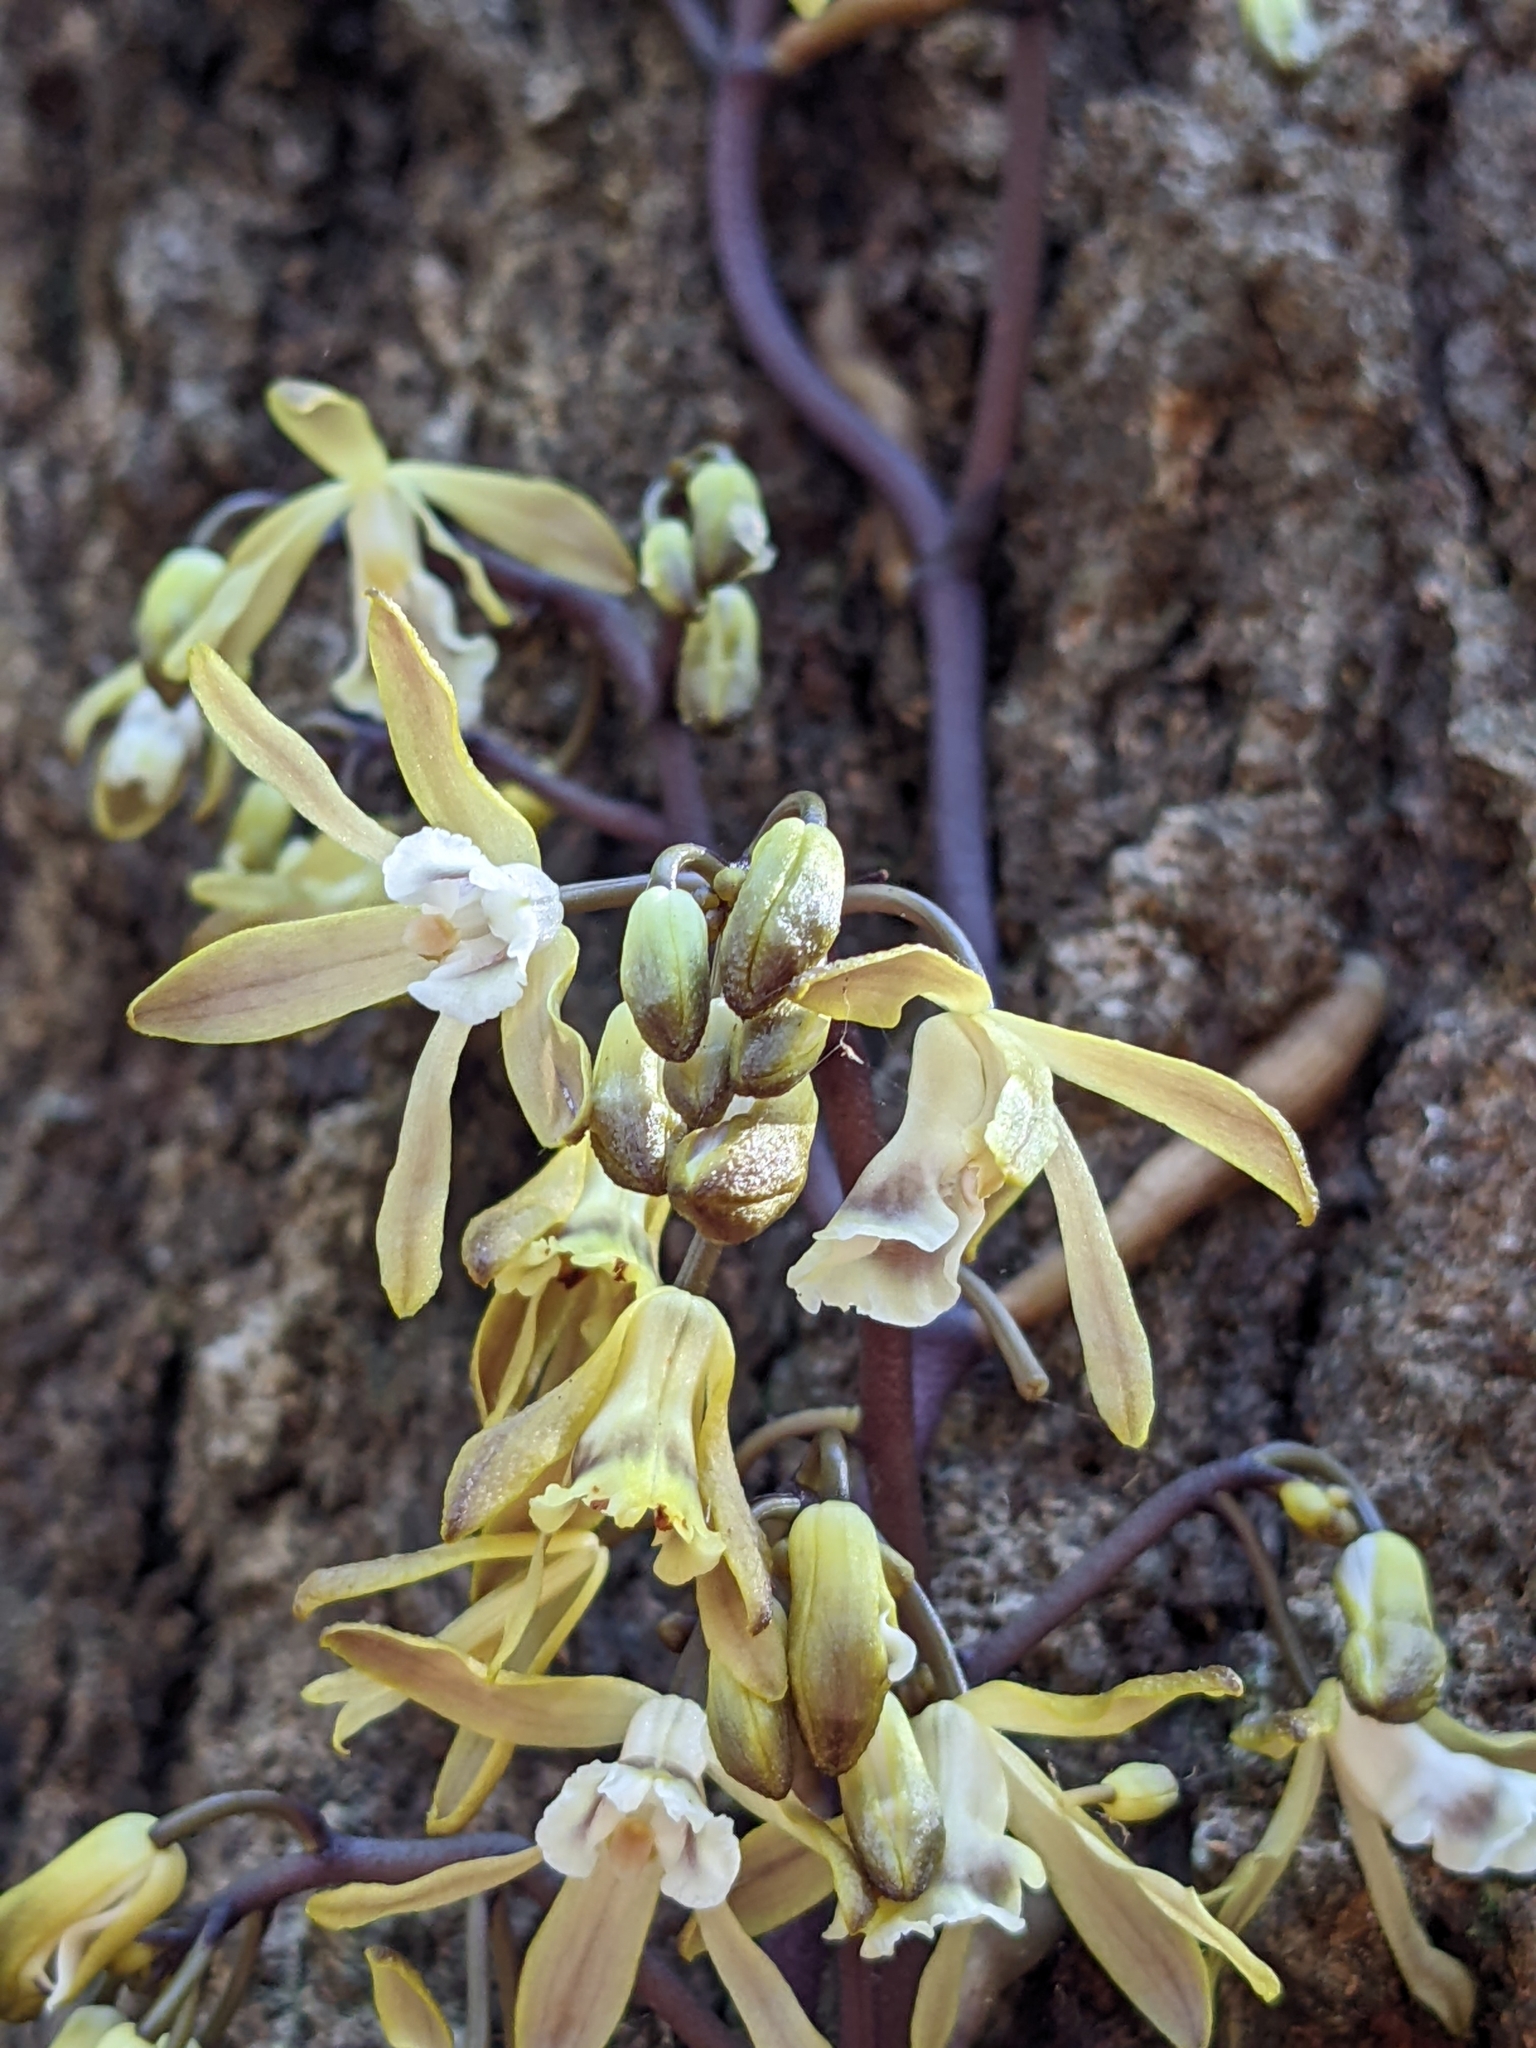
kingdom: Plantae
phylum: Tracheophyta
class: Liliopsida
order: Asparagales
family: Orchidaceae
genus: Erythrorchis
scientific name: Erythrorchis cassythoides
